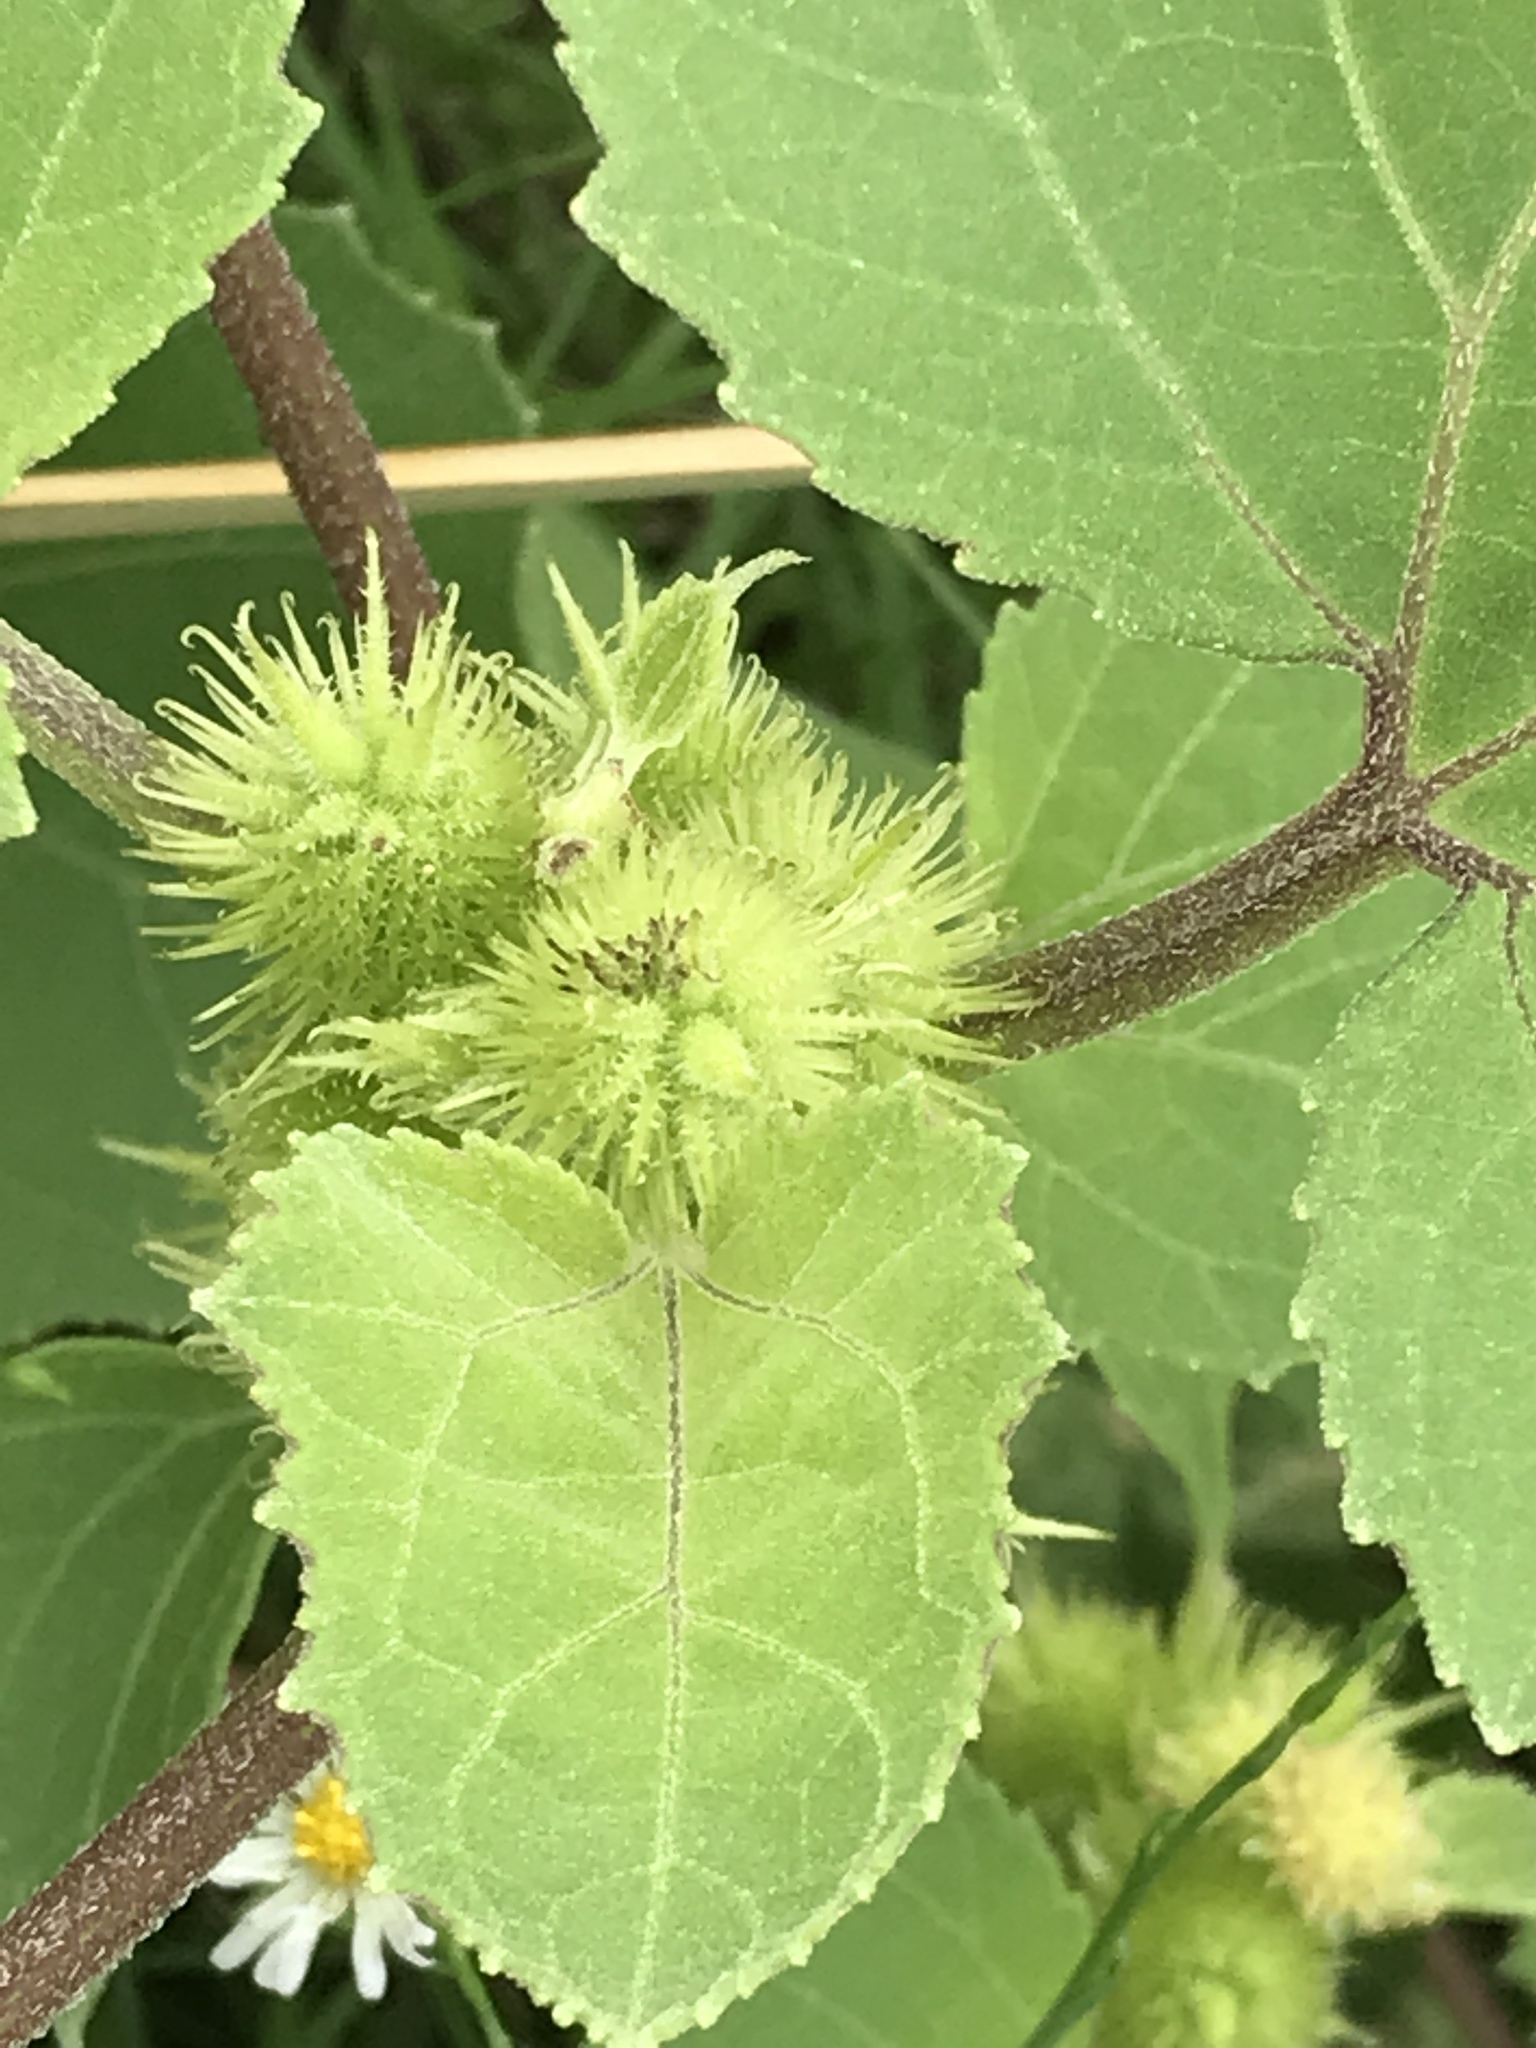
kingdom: Plantae
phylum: Tracheophyta
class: Magnoliopsida
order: Asterales
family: Asteraceae
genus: Xanthium
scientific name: Xanthium strumarium
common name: Rough cocklebur
